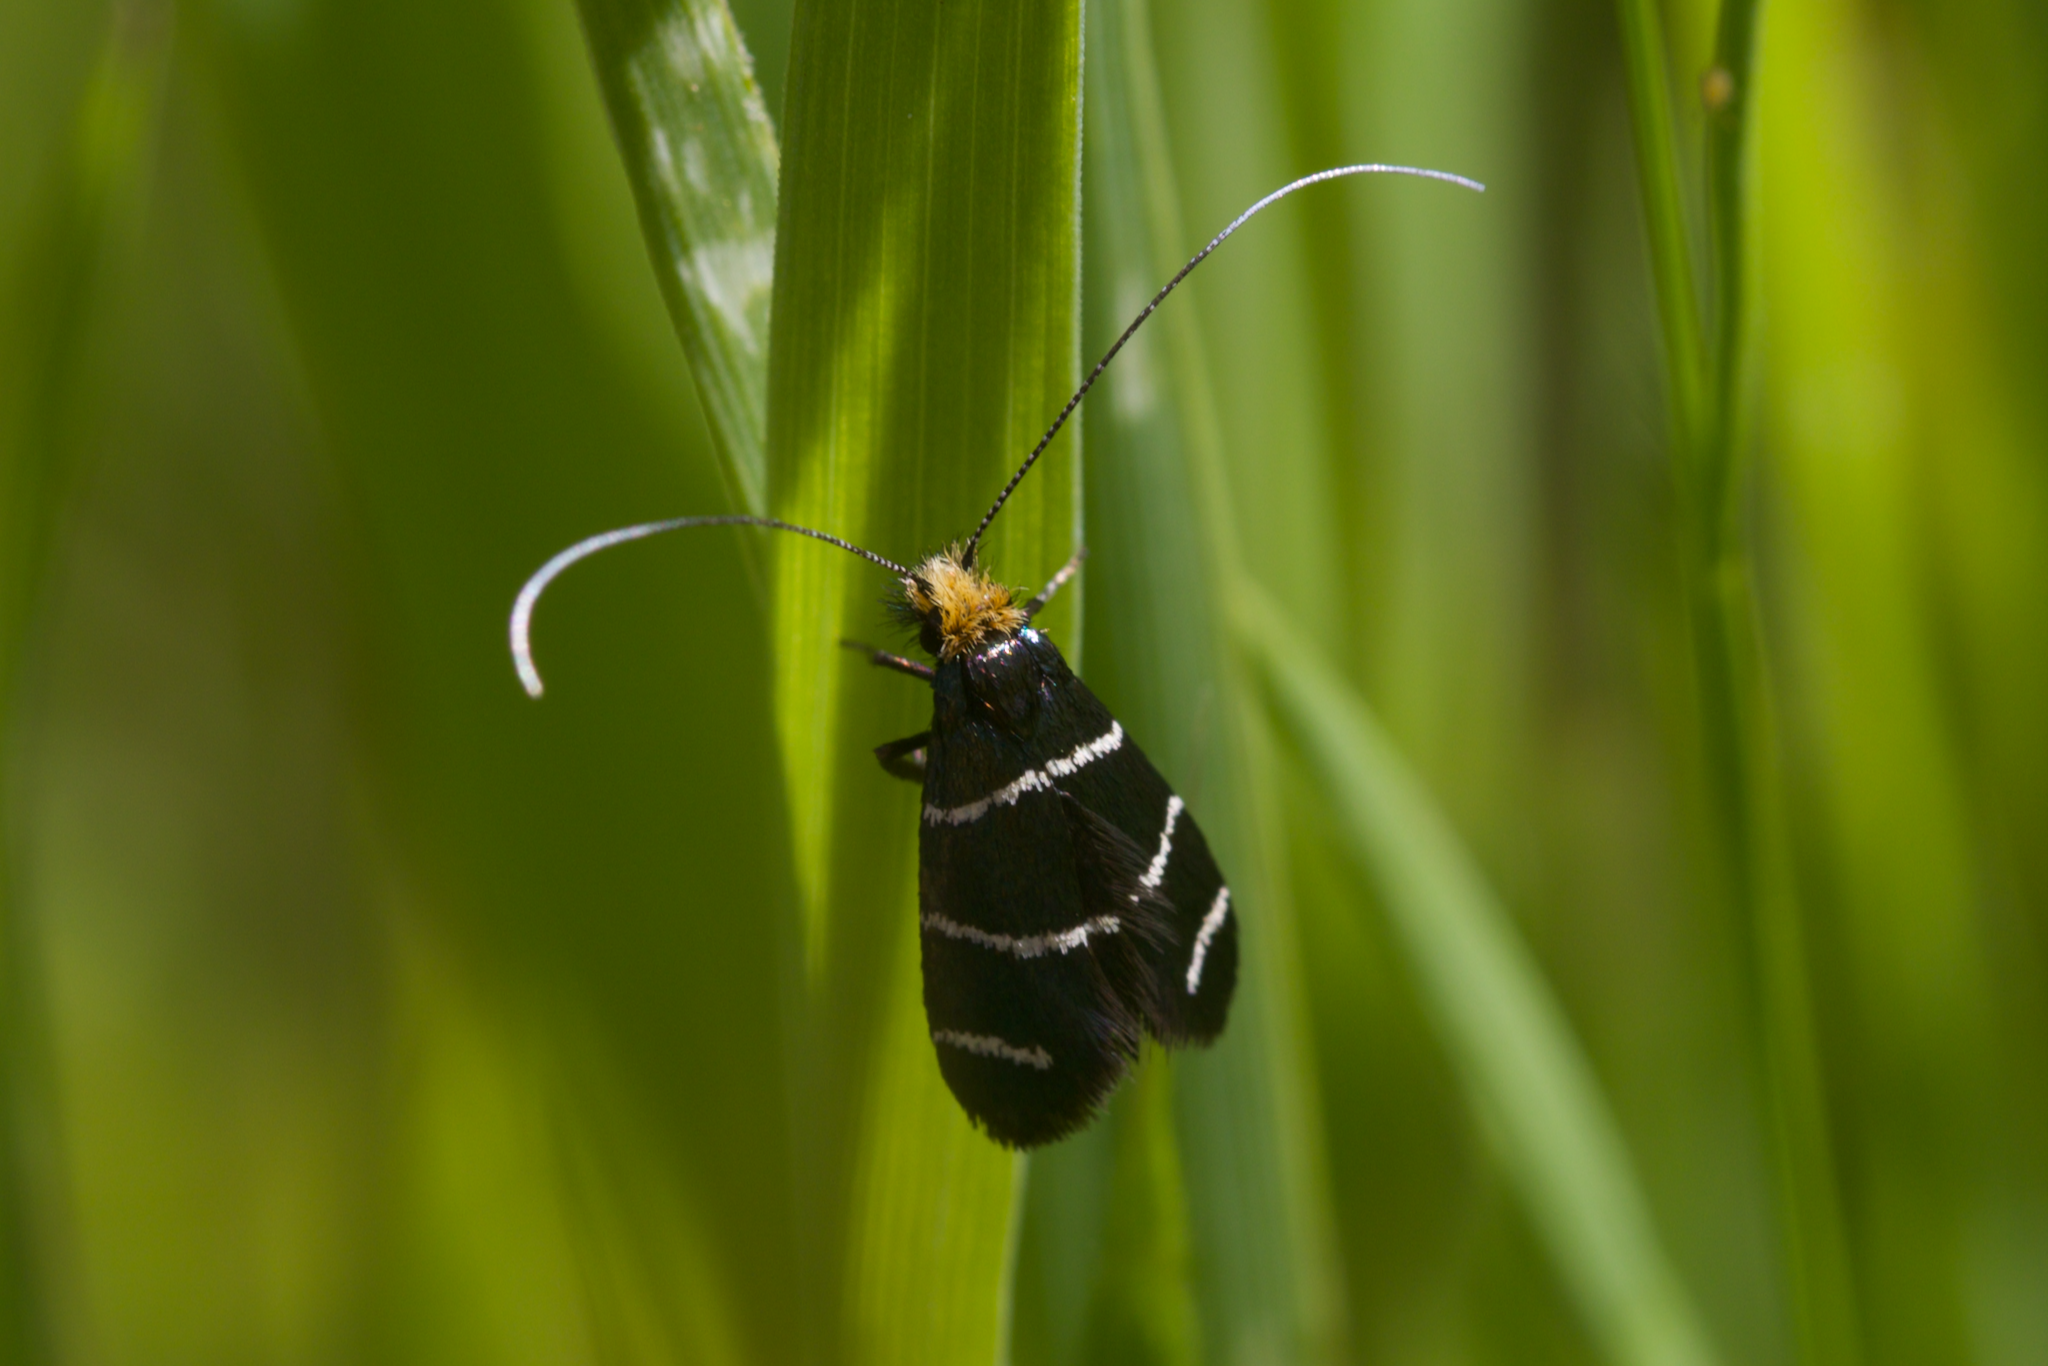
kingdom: Animalia
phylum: Arthropoda
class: Insecta
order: Lepidoptera
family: Adelidae
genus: Adela
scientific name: Adela trigrapha
